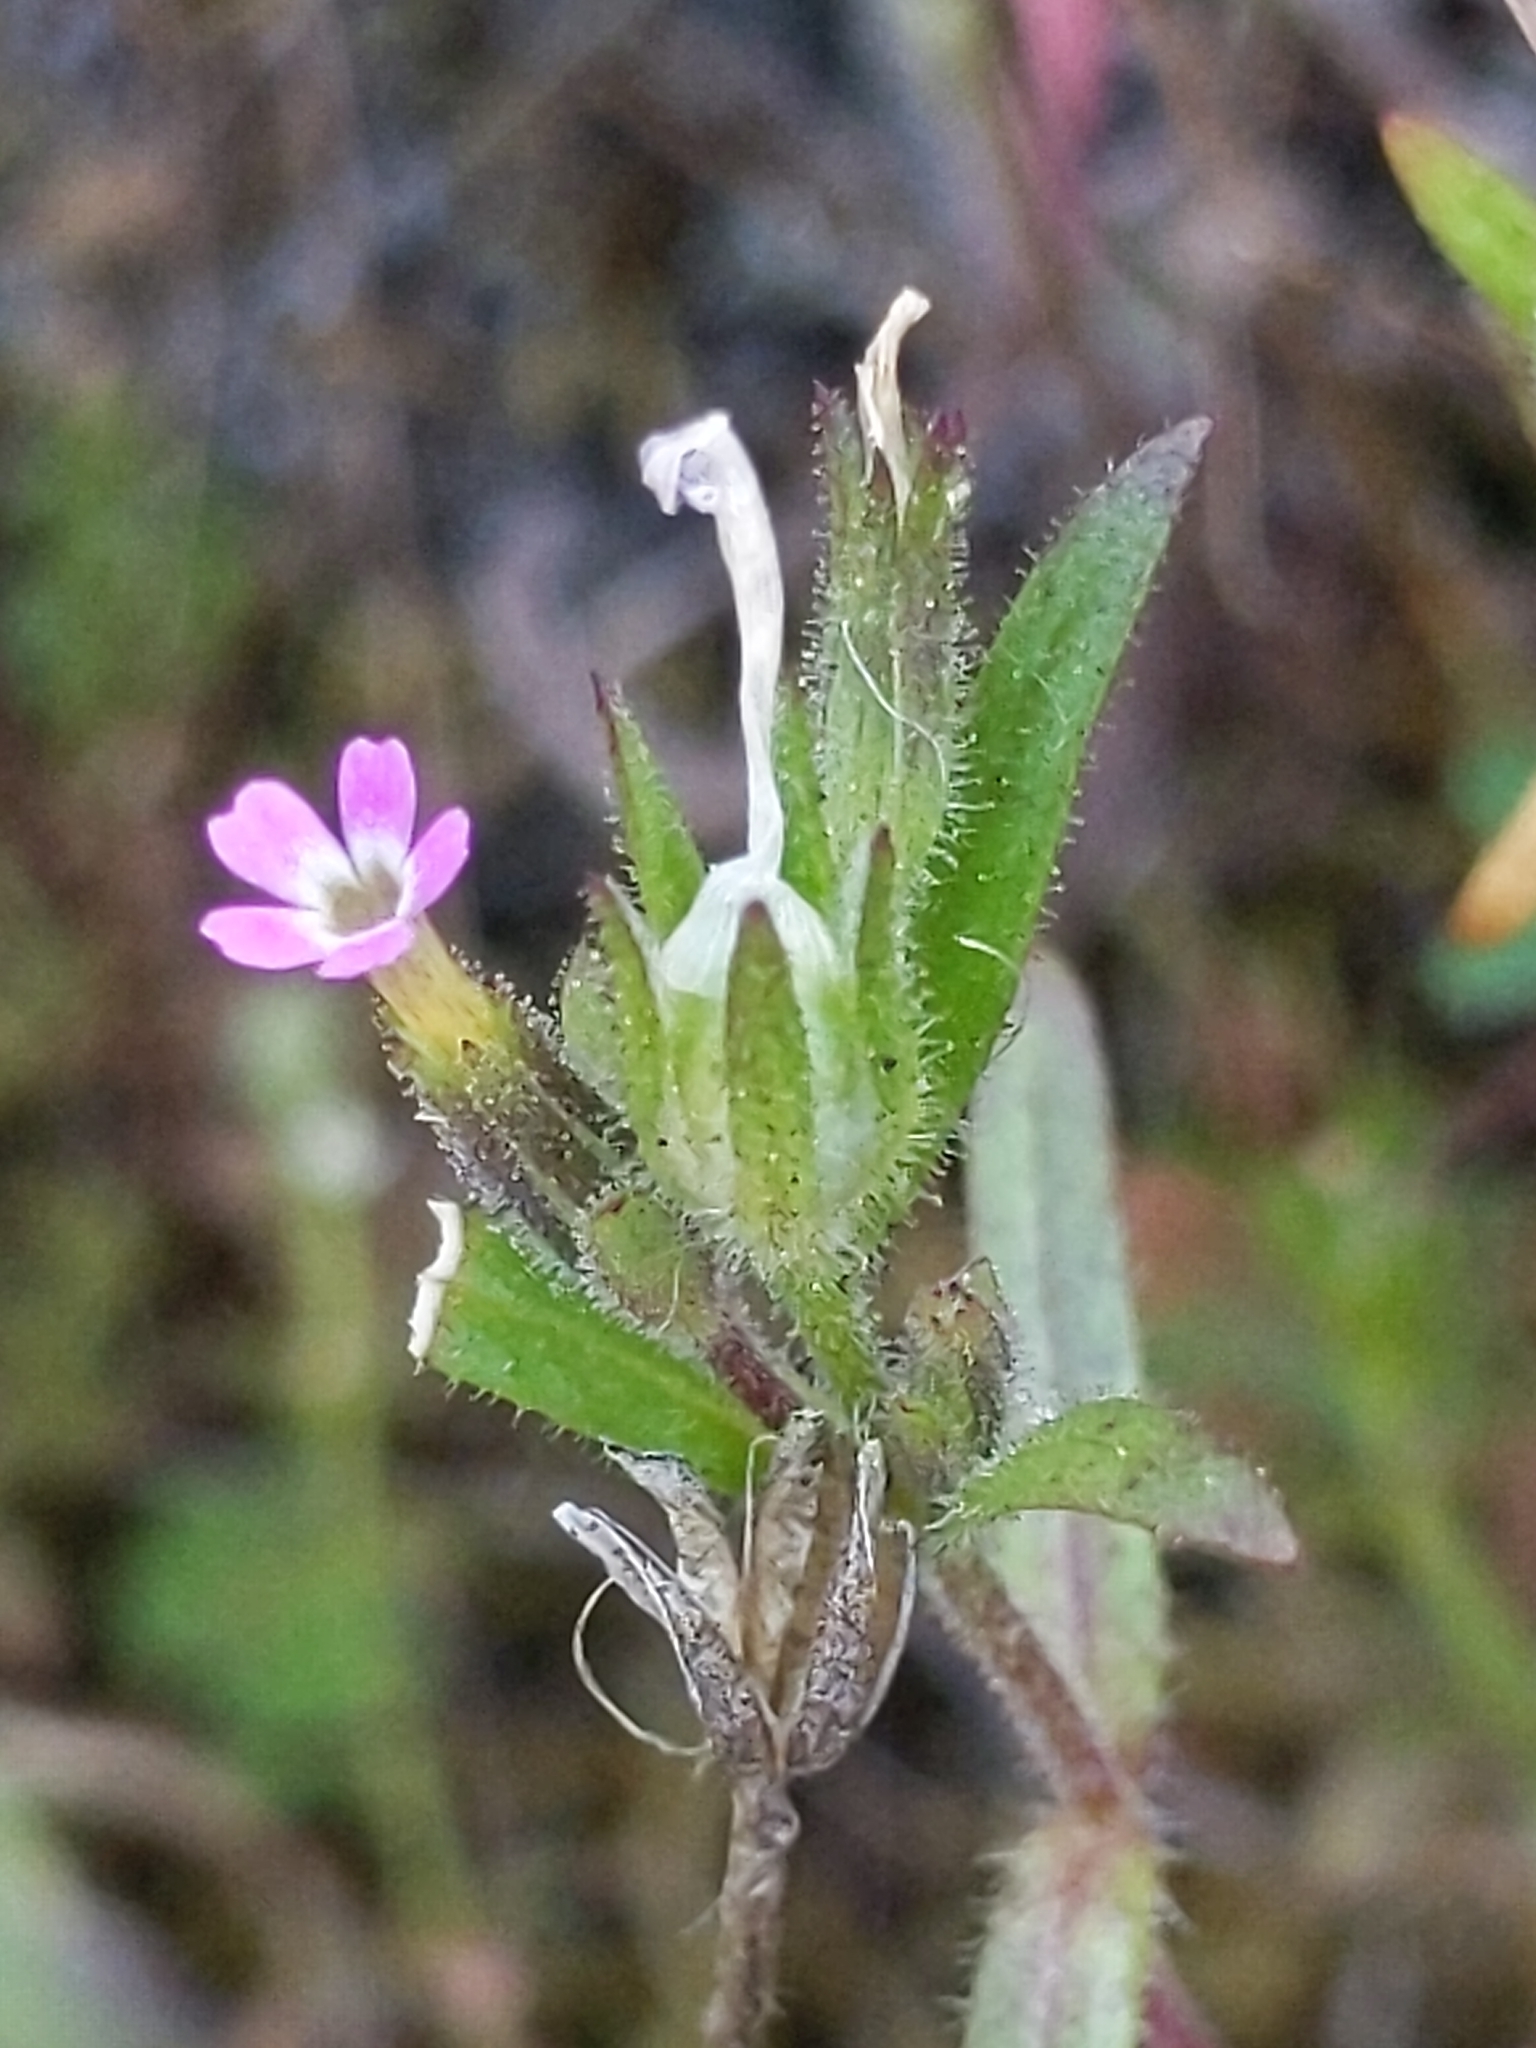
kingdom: Plantae
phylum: Tracheophyta
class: Magnoliopsida
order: Ericales
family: Polemoniaceae
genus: Phlox
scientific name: Phlox gracilis
